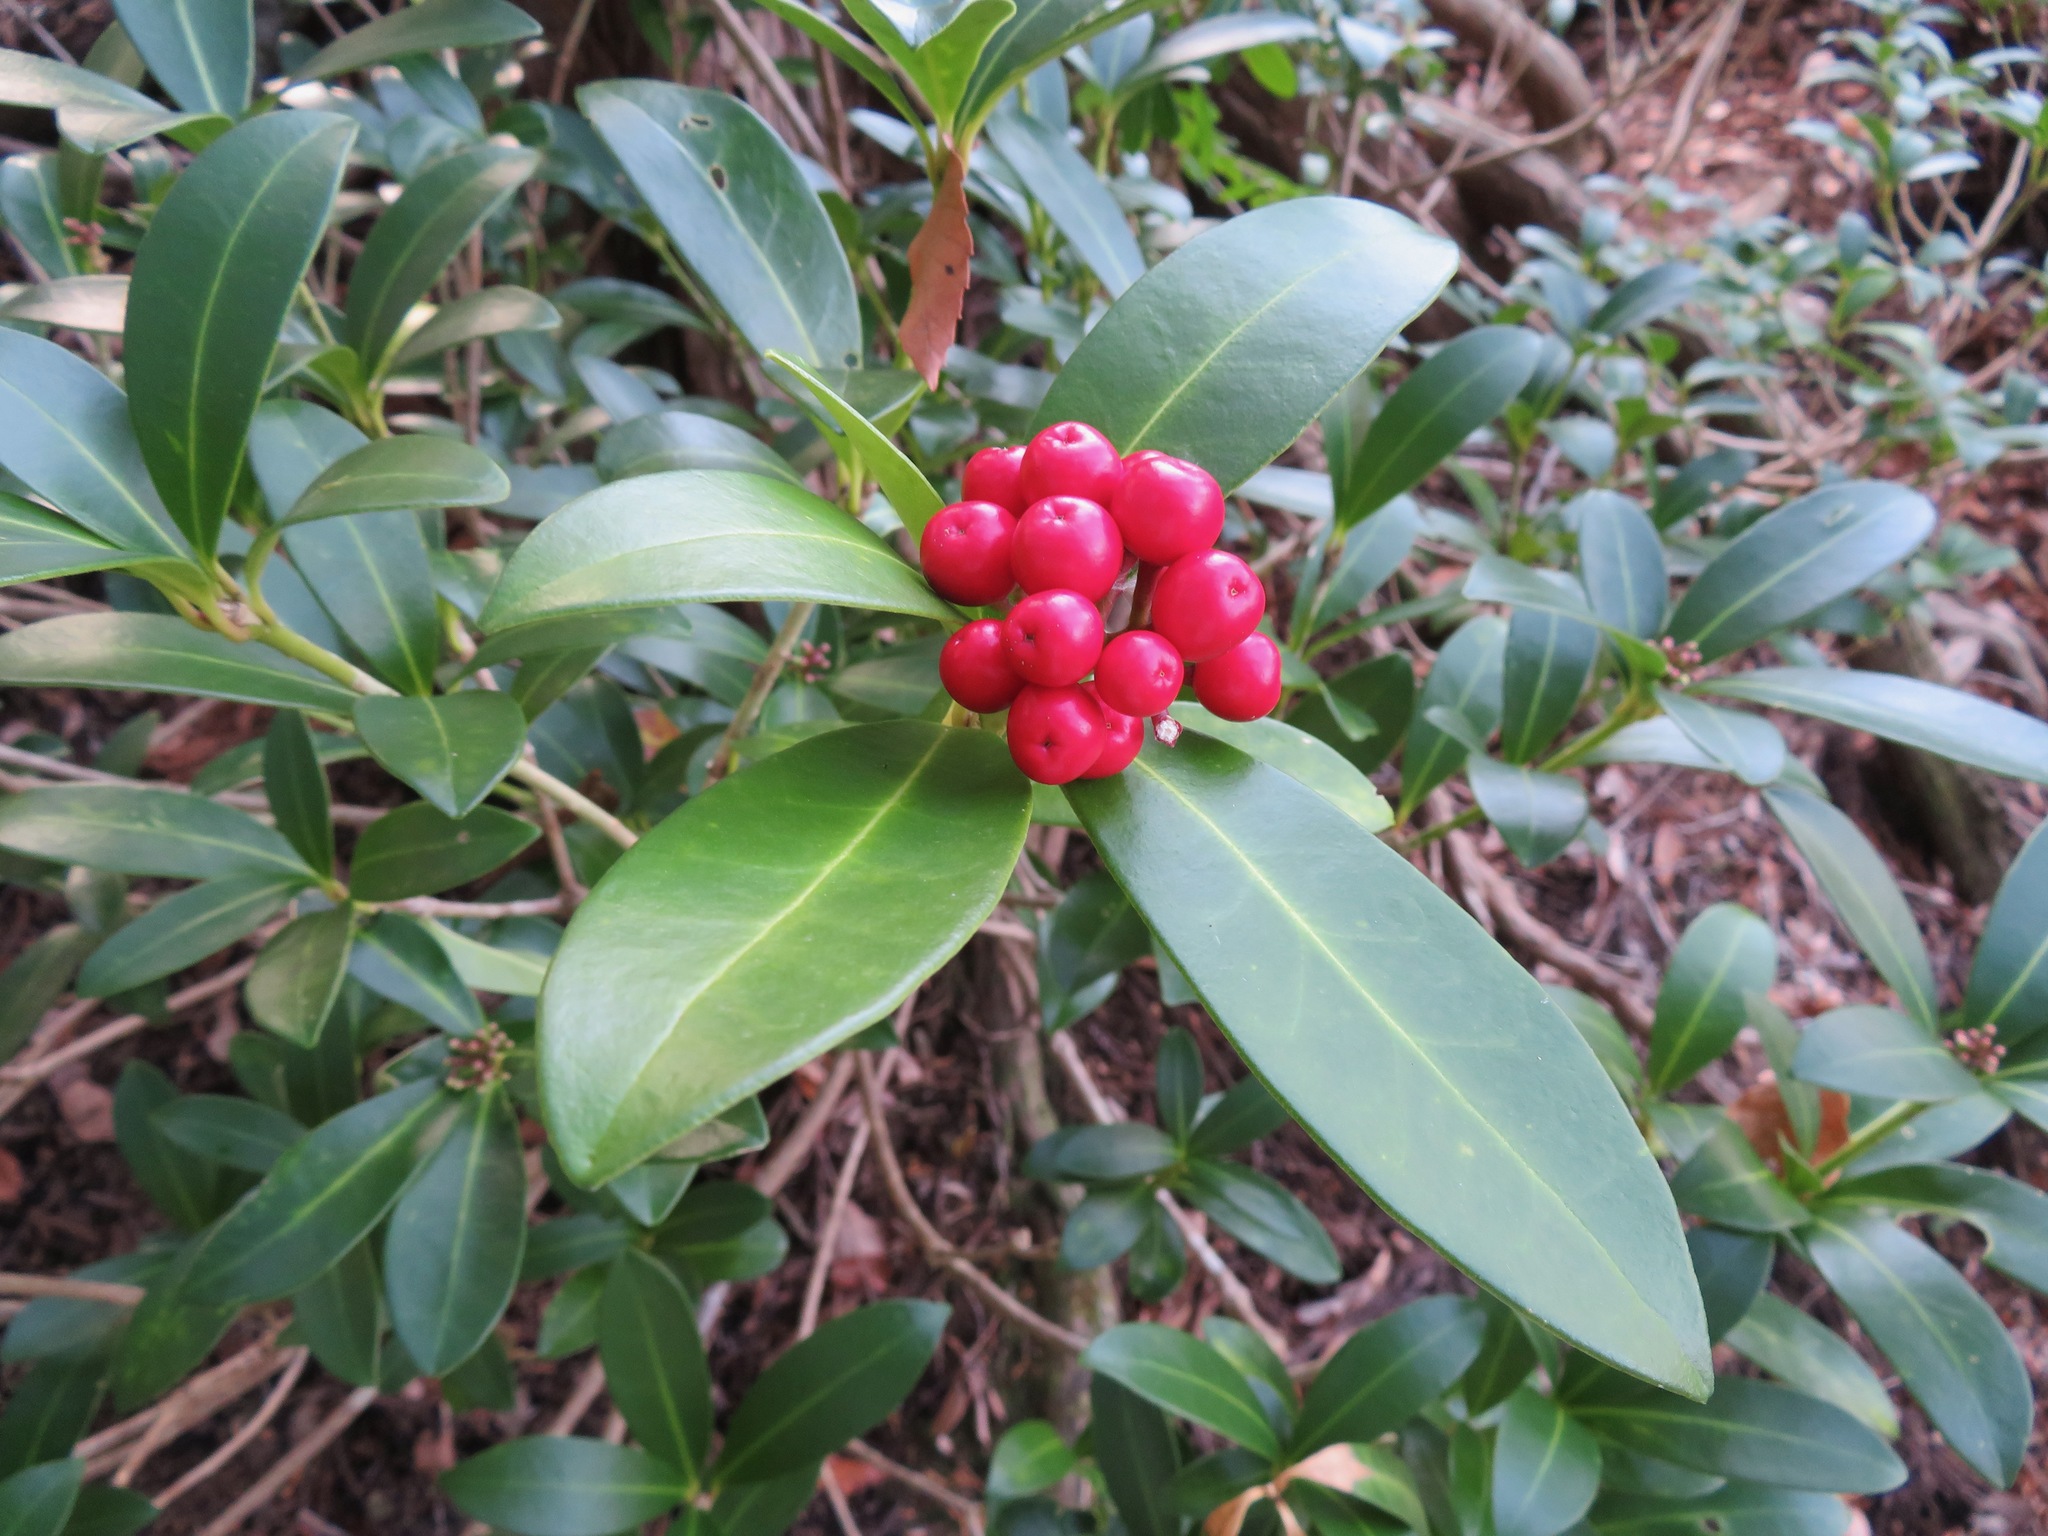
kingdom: Plantae
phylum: Tracheophyta
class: Magnoliopsida
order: Sapindales
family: Rutaceae
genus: Skimmia
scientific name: Skimmia japonica
